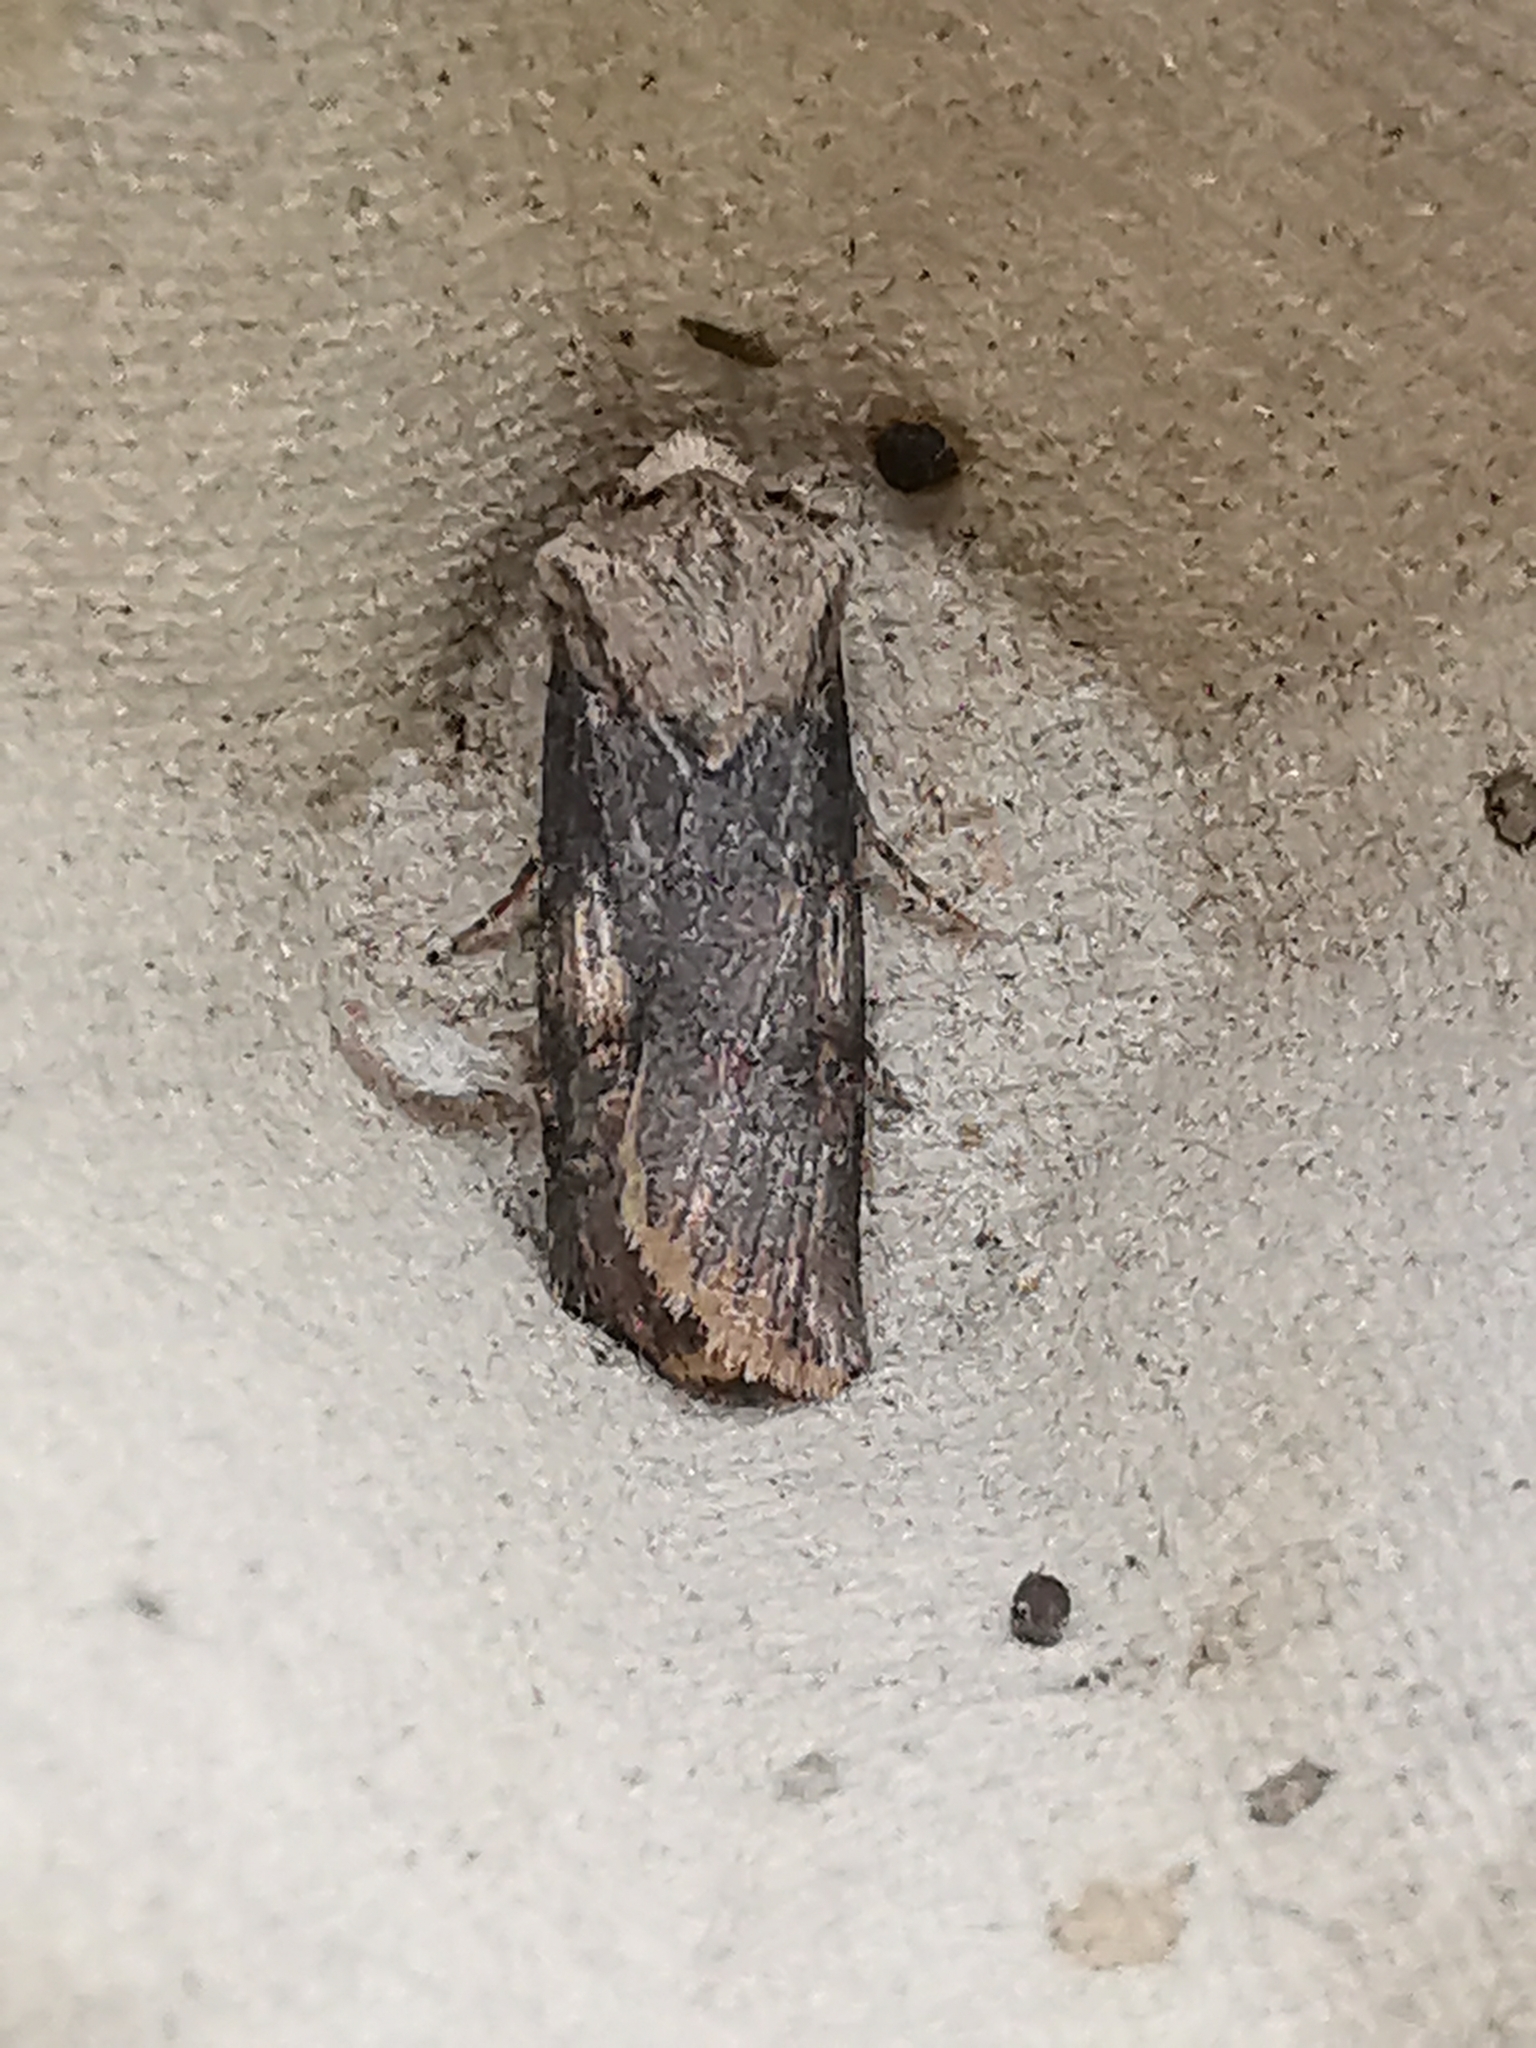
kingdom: Animalia
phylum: Arthropoda
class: Insecta
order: Lepidoptera
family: Noctuidae
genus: Agrotis
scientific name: Agrotis puta
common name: Shuttle-shaped dart
